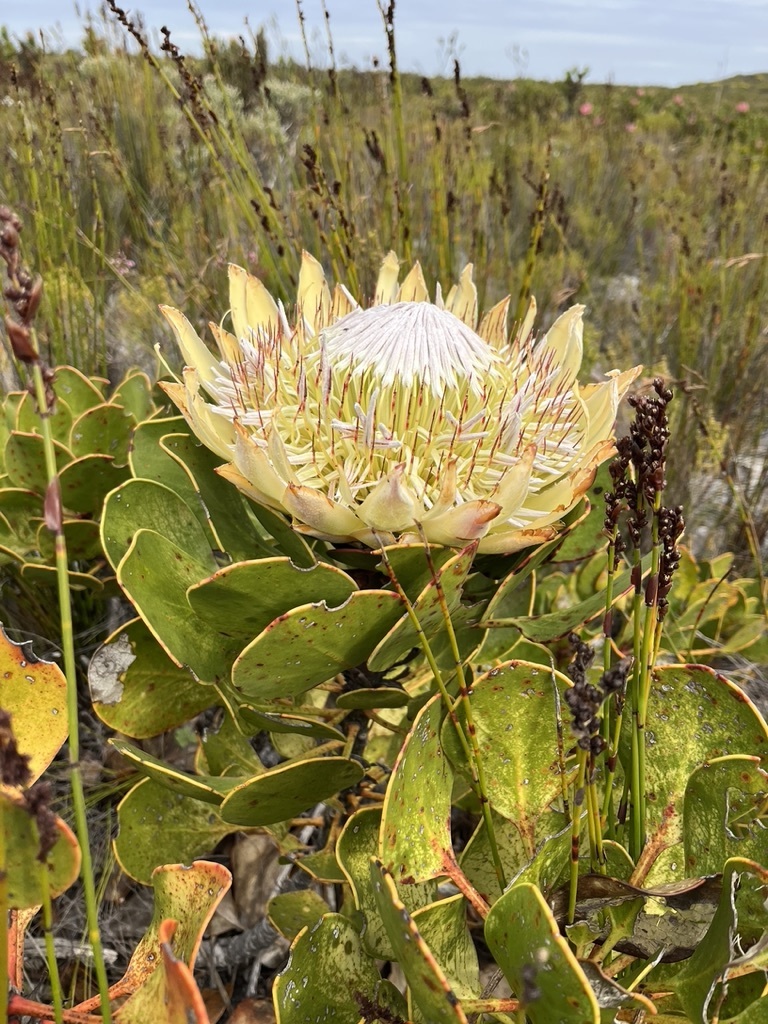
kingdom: Plantae
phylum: Tracheophyta
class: Magnoliopsida
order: Proteales
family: Proteaceae
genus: Protea
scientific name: Protea cynaroides
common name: King protea
